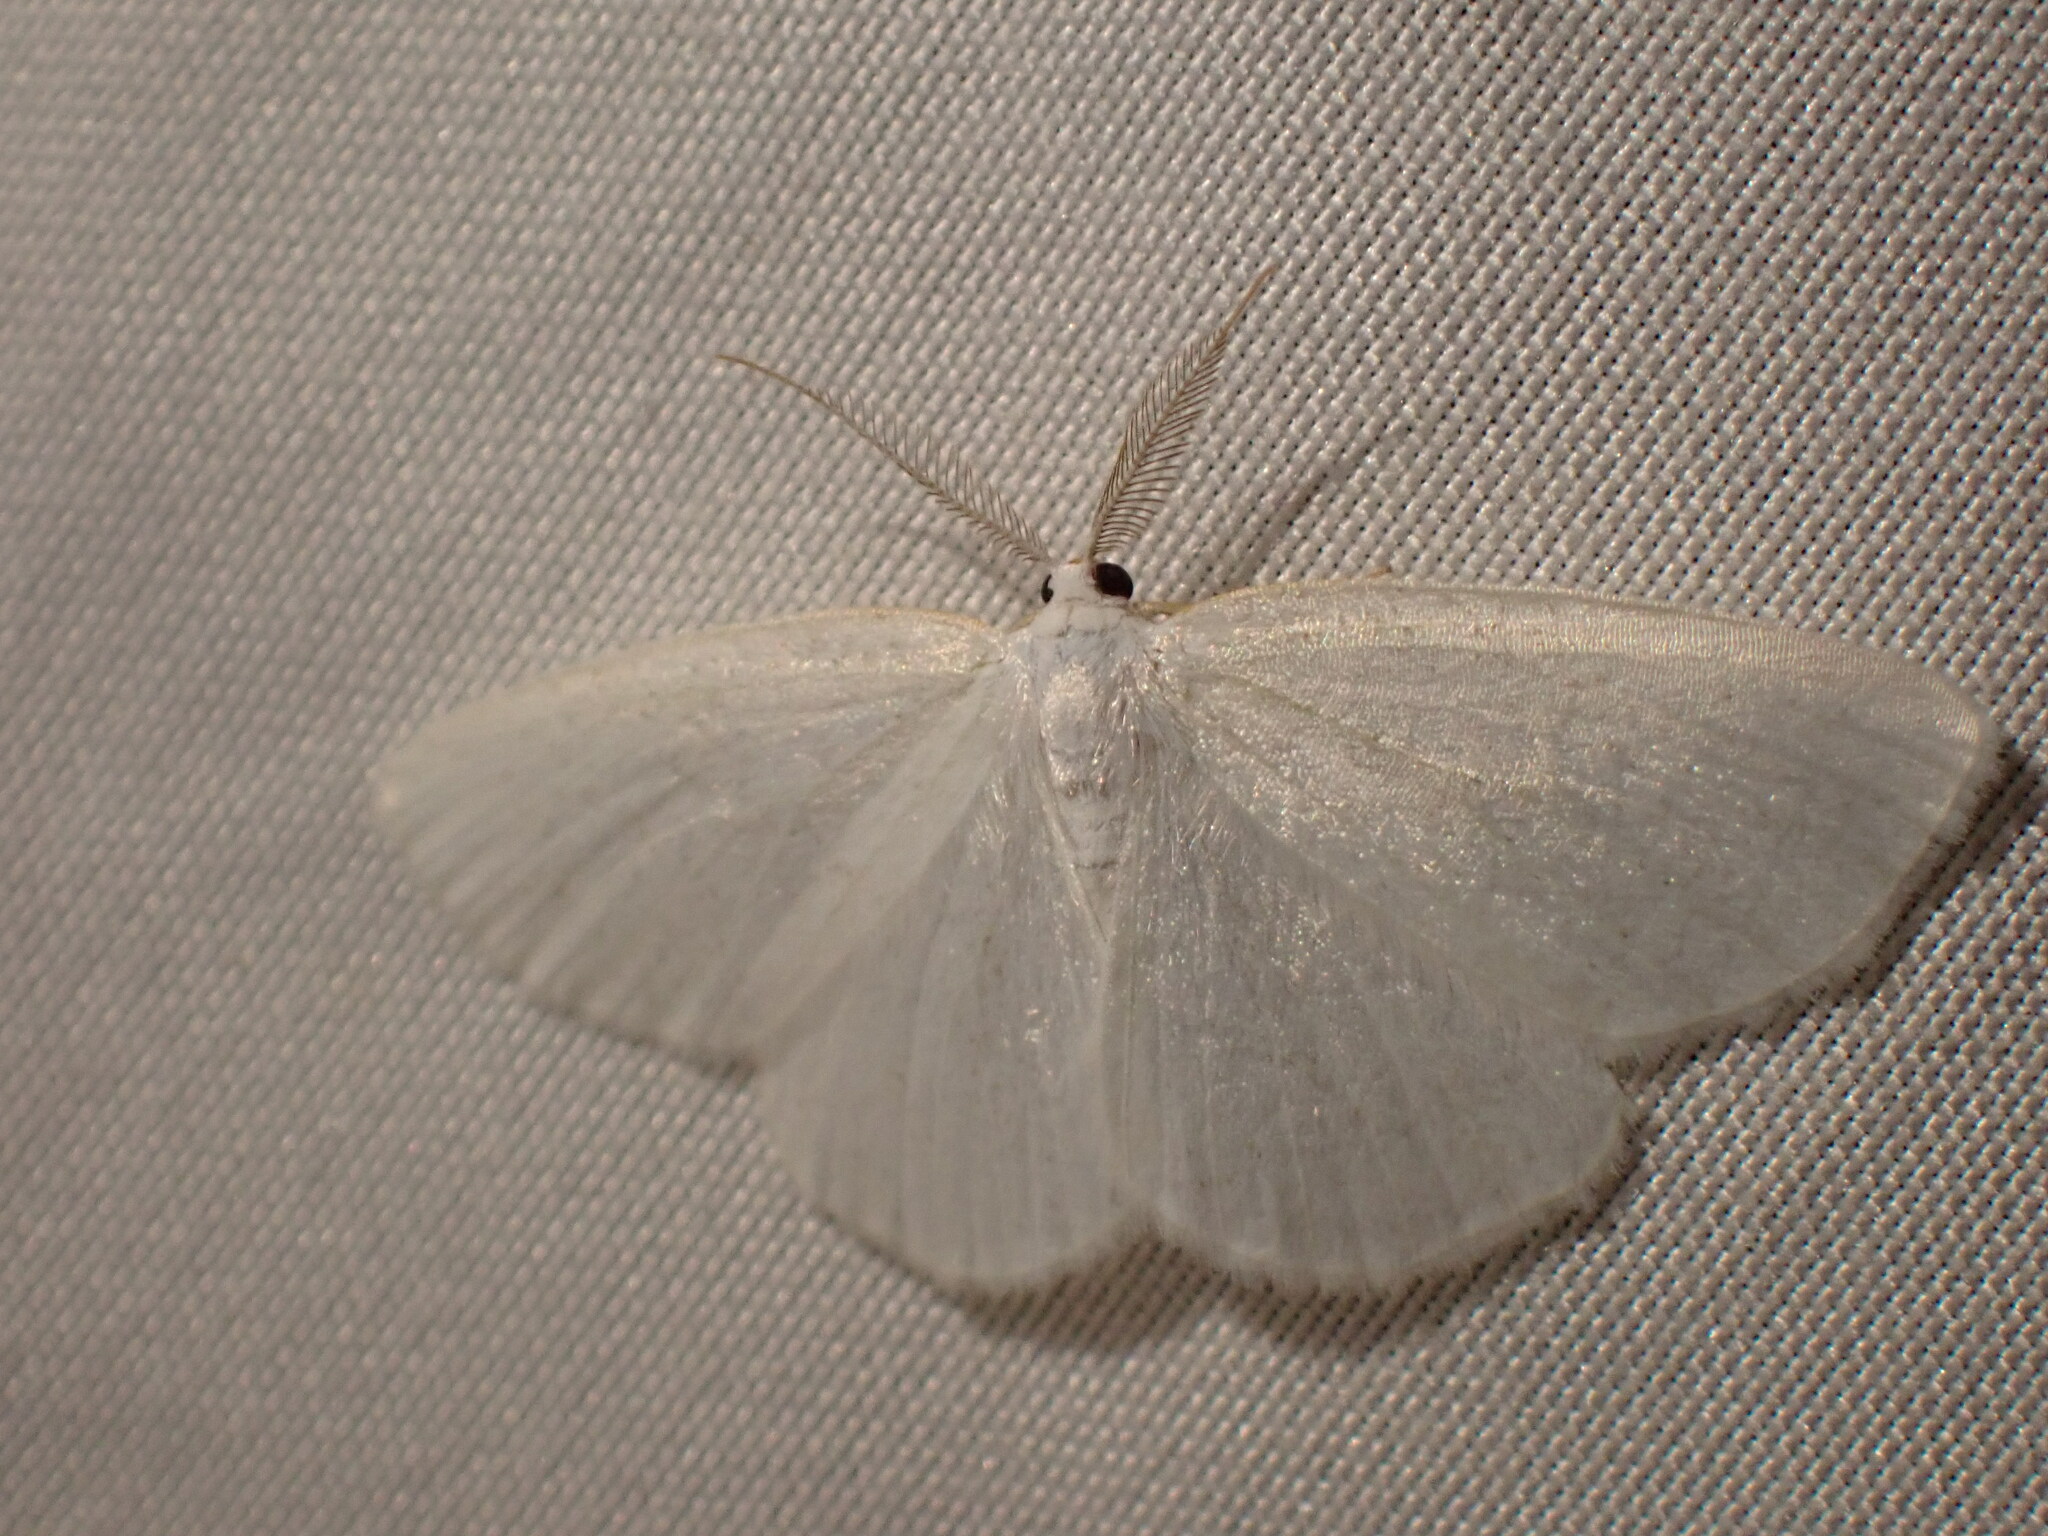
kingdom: Animalia
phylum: Arthropoda
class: Insecta
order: Lepidoptera
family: Geometridae
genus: Cabera
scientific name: Cabera variolaria
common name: Pink-striped willow spanworm
